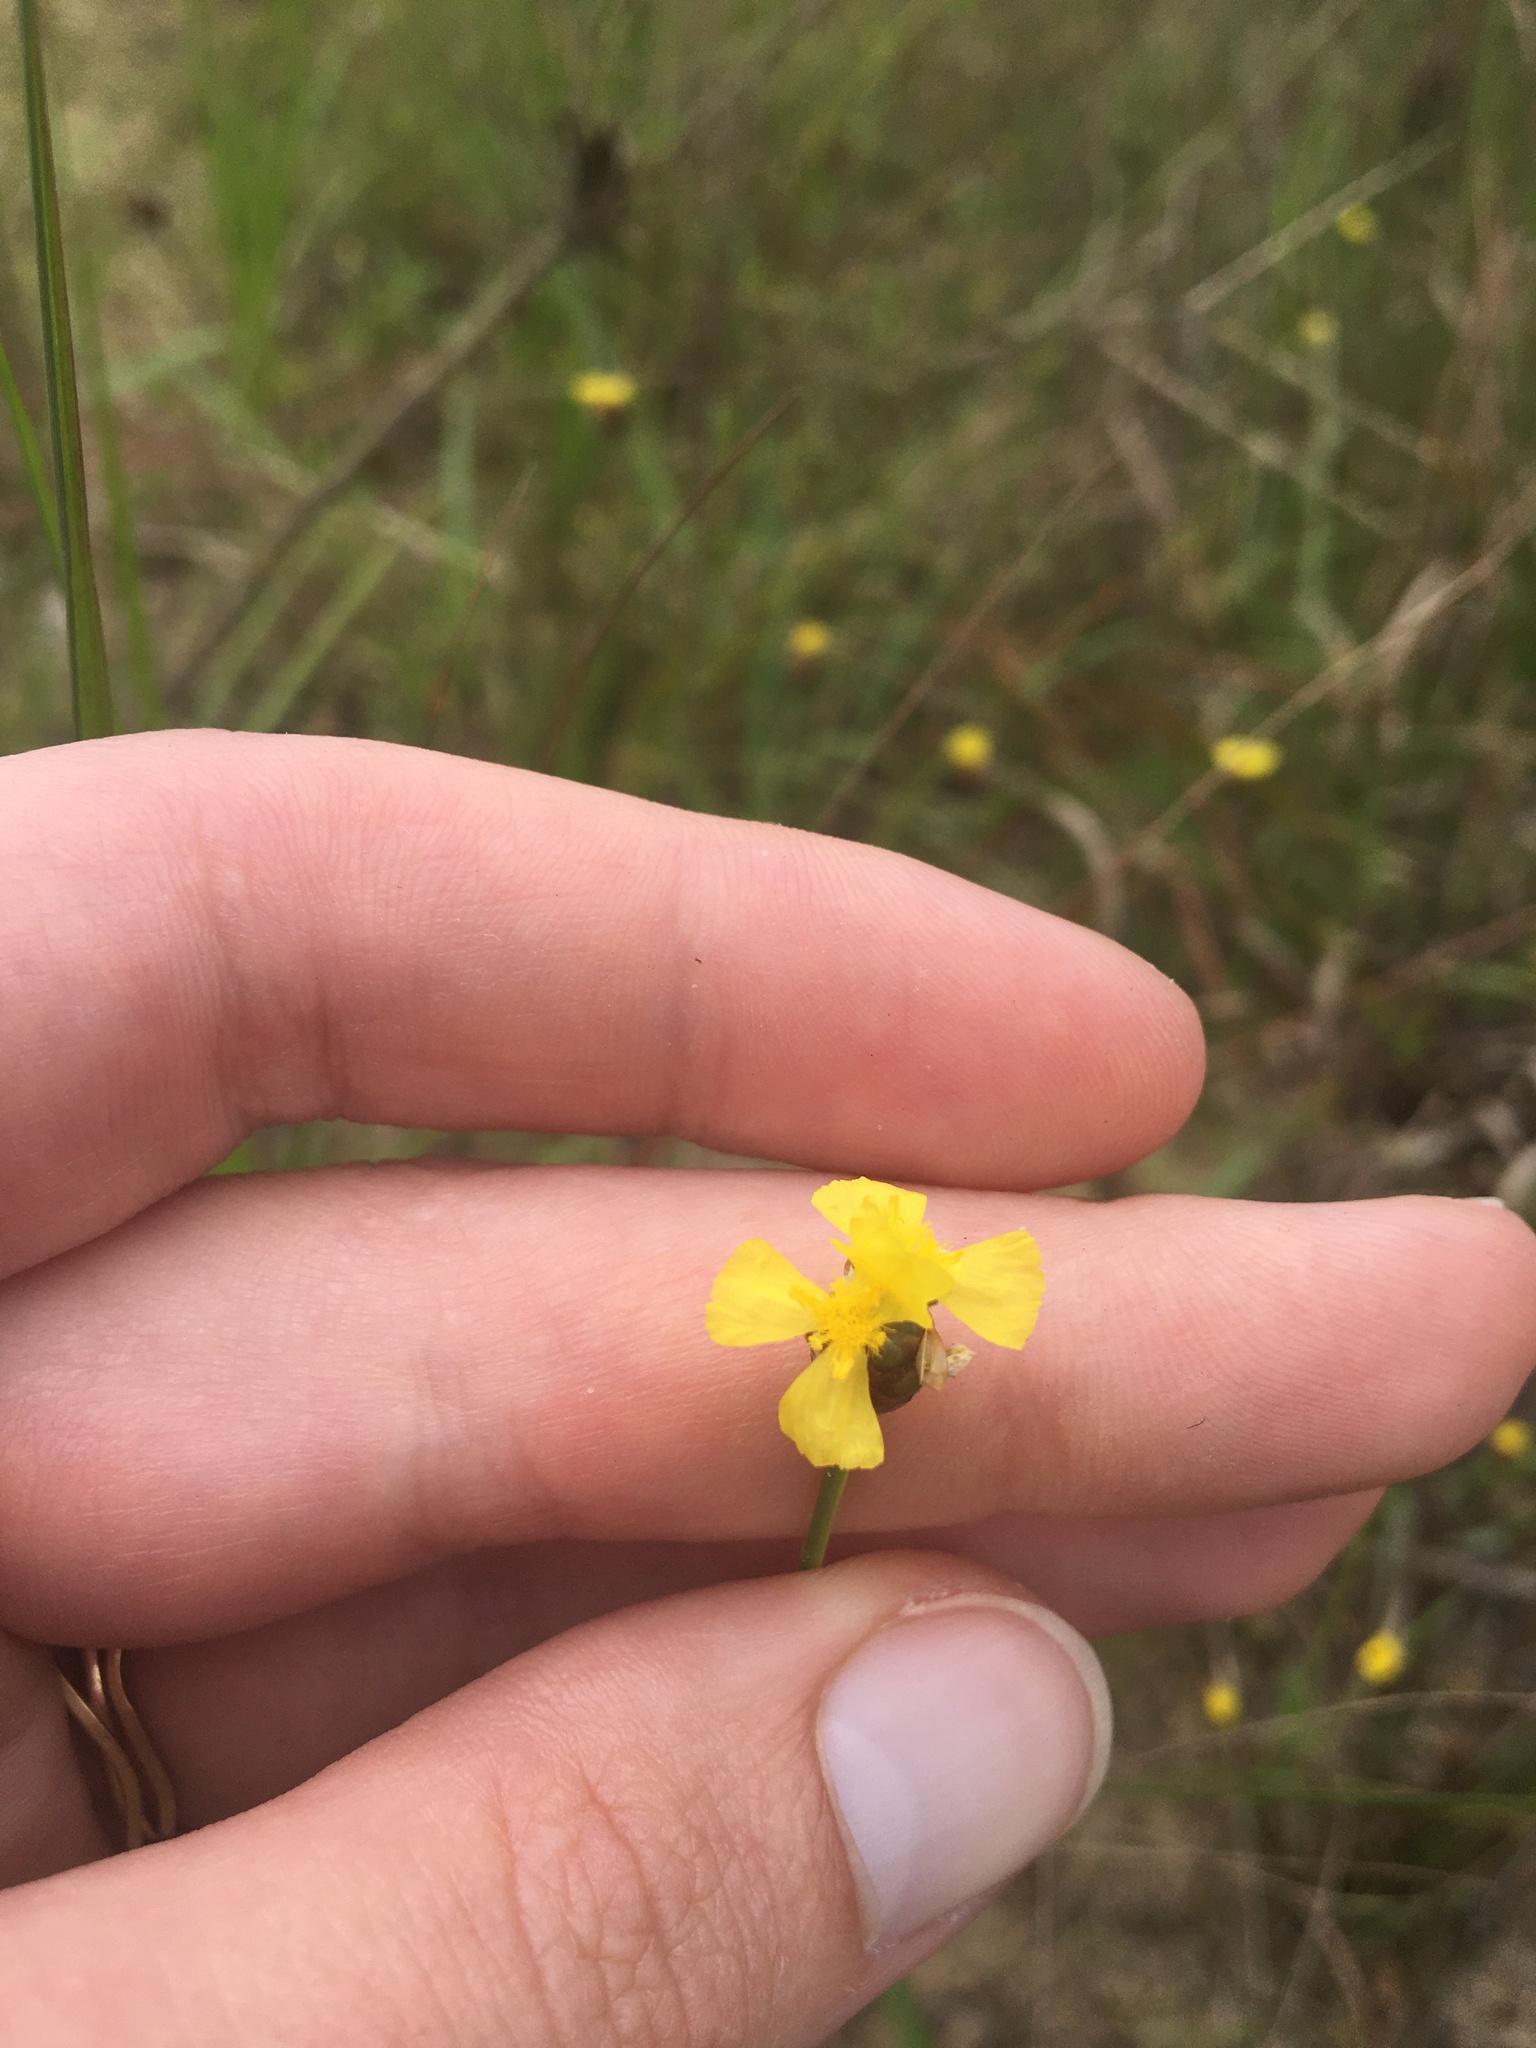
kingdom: Plantae
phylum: Tracheophyta
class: Liliopsida
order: Poales
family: Xyridaceae
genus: Xyris
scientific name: Xyris jupicai
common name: Richard's yelloweyed grass
